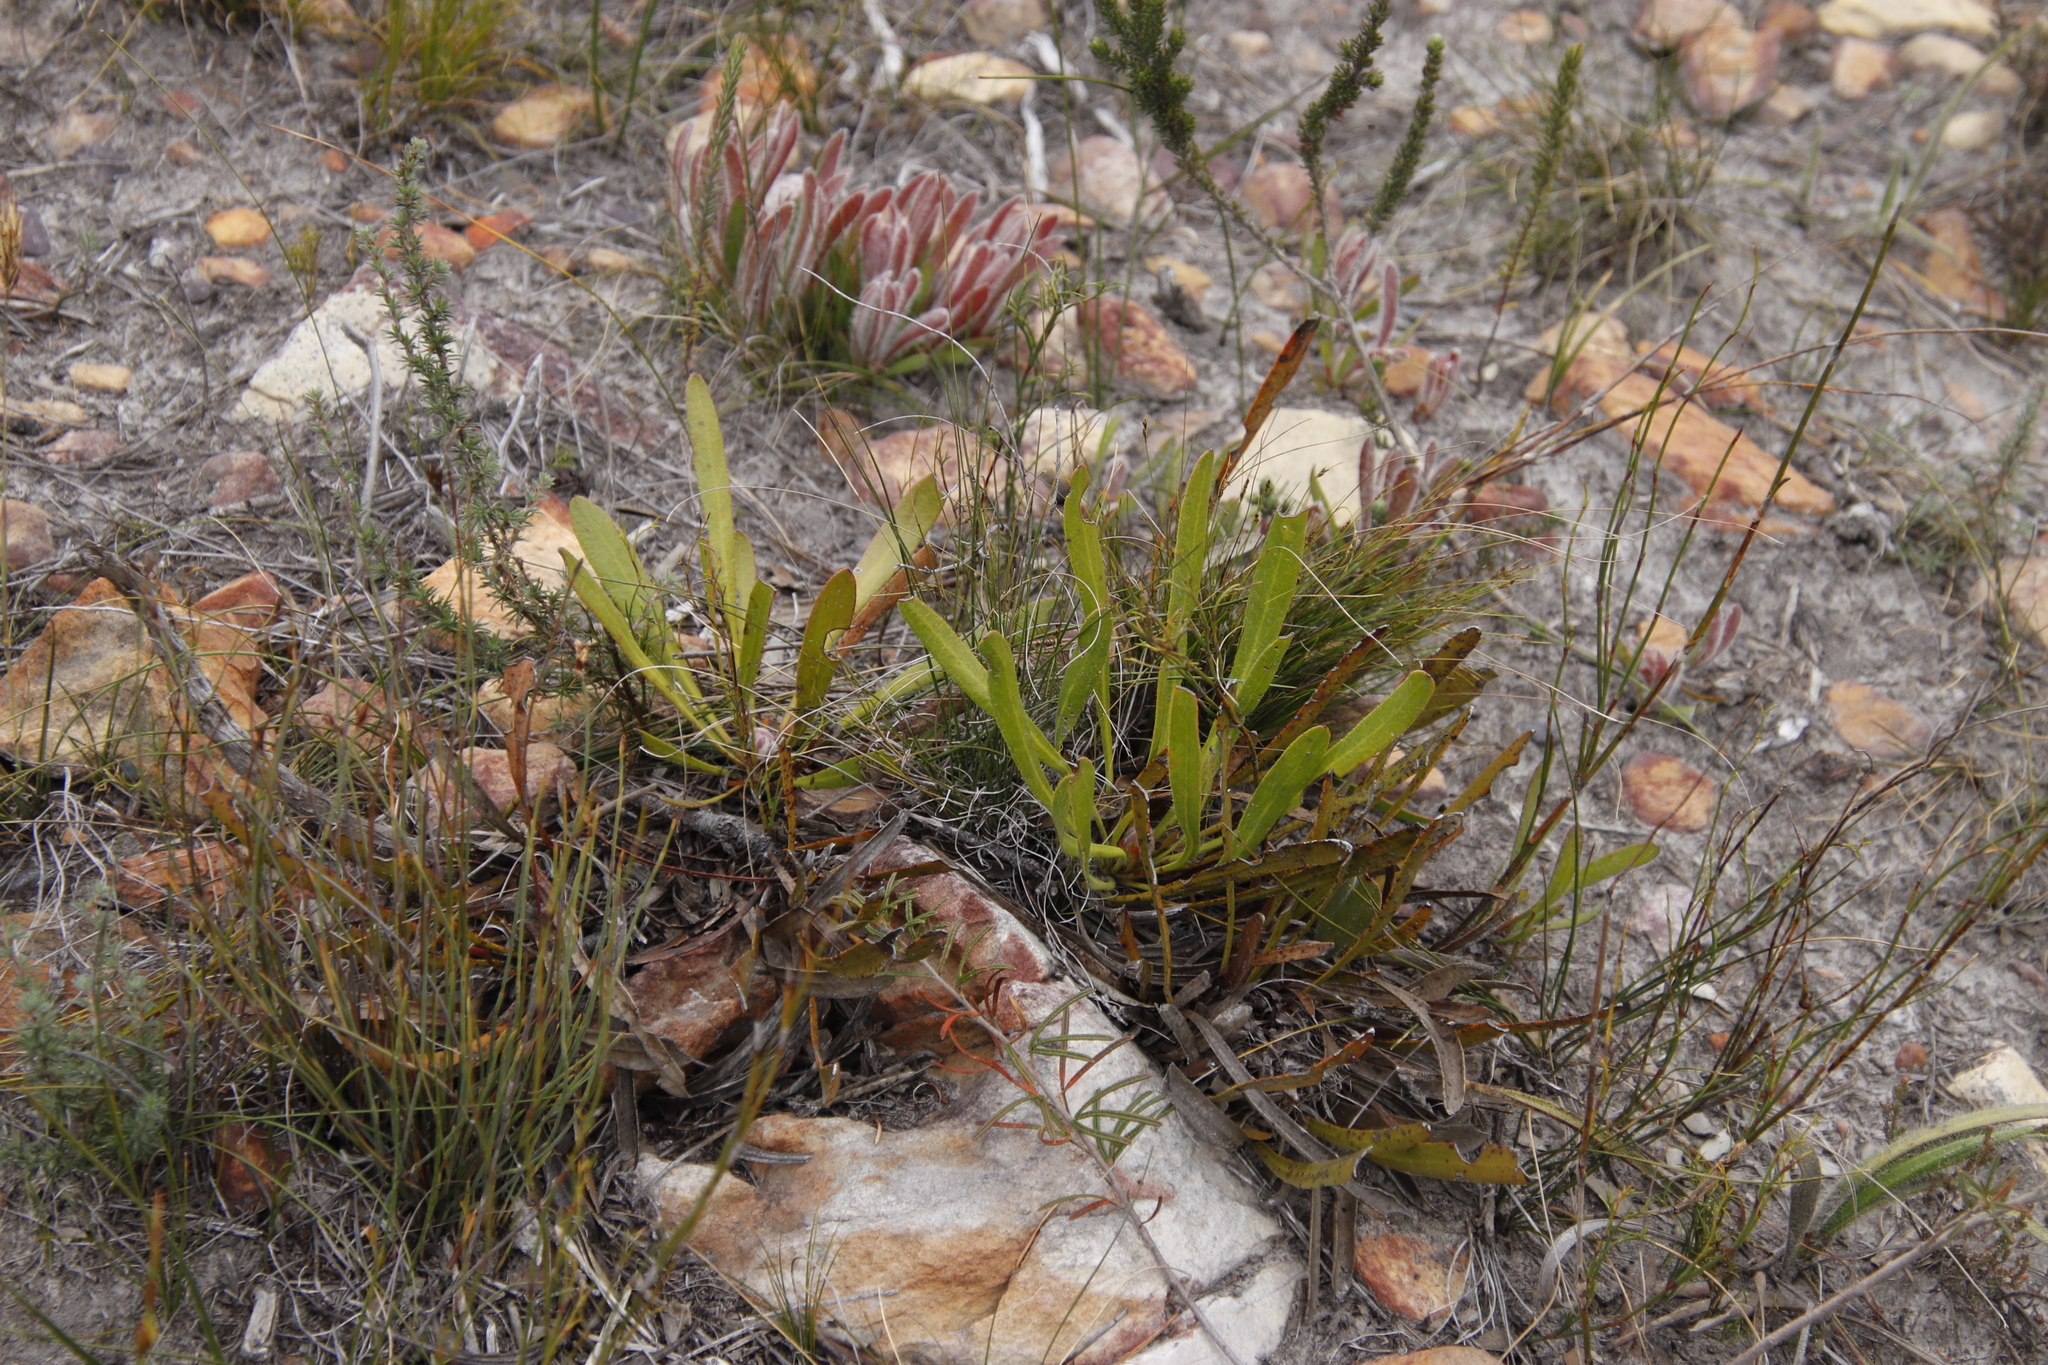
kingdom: Plantae
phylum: Tracheophyta
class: Magnoliopsida
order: Proteales
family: Proteaceae
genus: Protea
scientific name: Protea aspera
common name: Rough-leaf sugarbush
